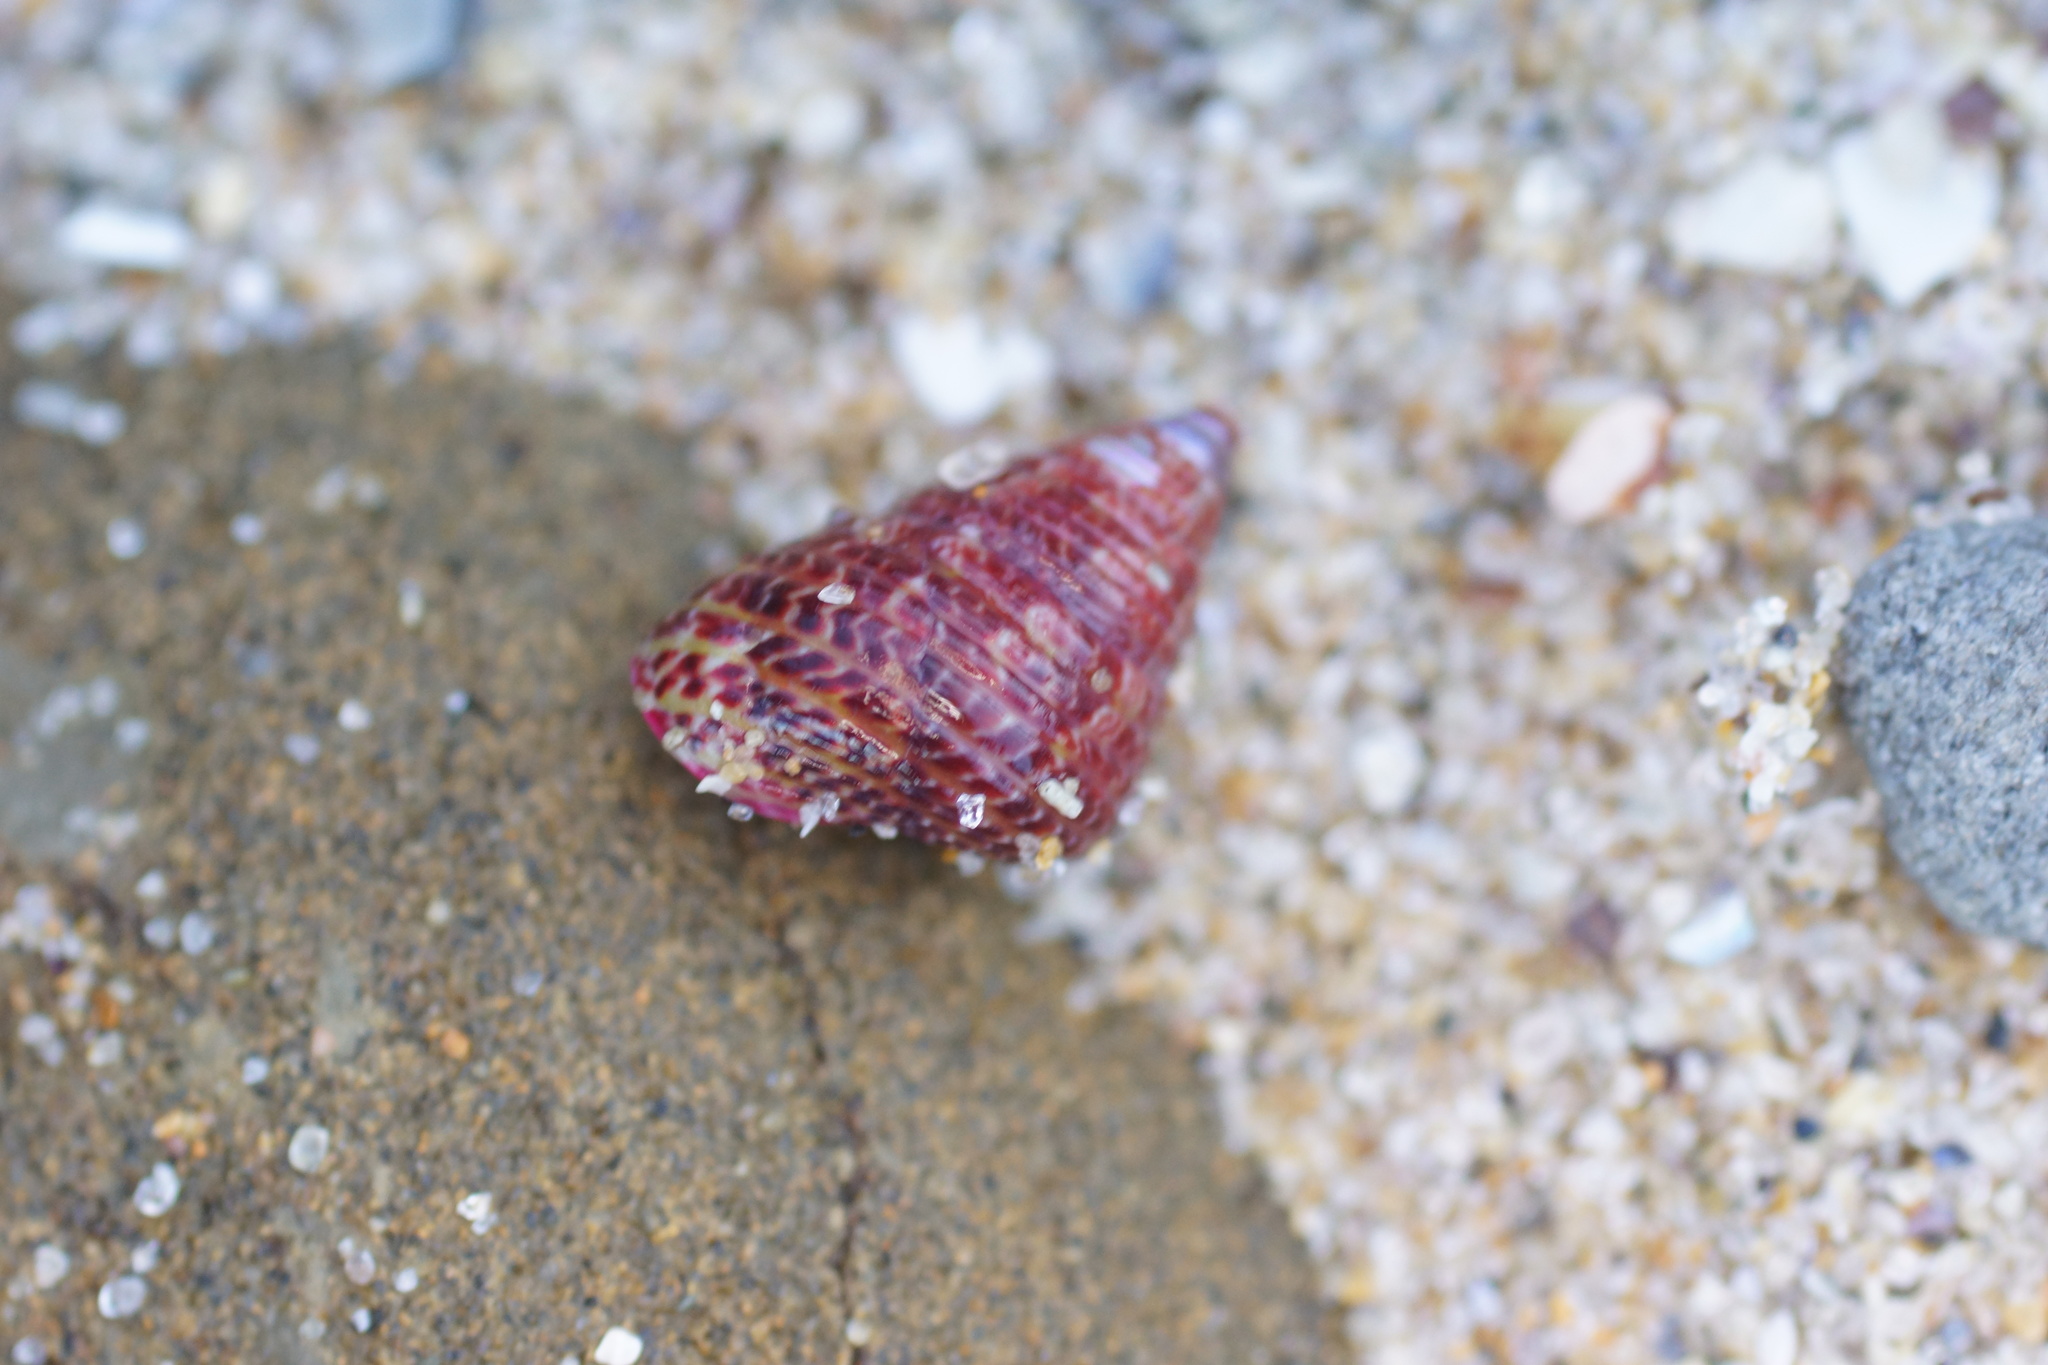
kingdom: Animalia
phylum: Mollusca
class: Gastropoda
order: Trochida
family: Trochidae
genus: Prothalotia
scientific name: Prothalotia pulcherrima
